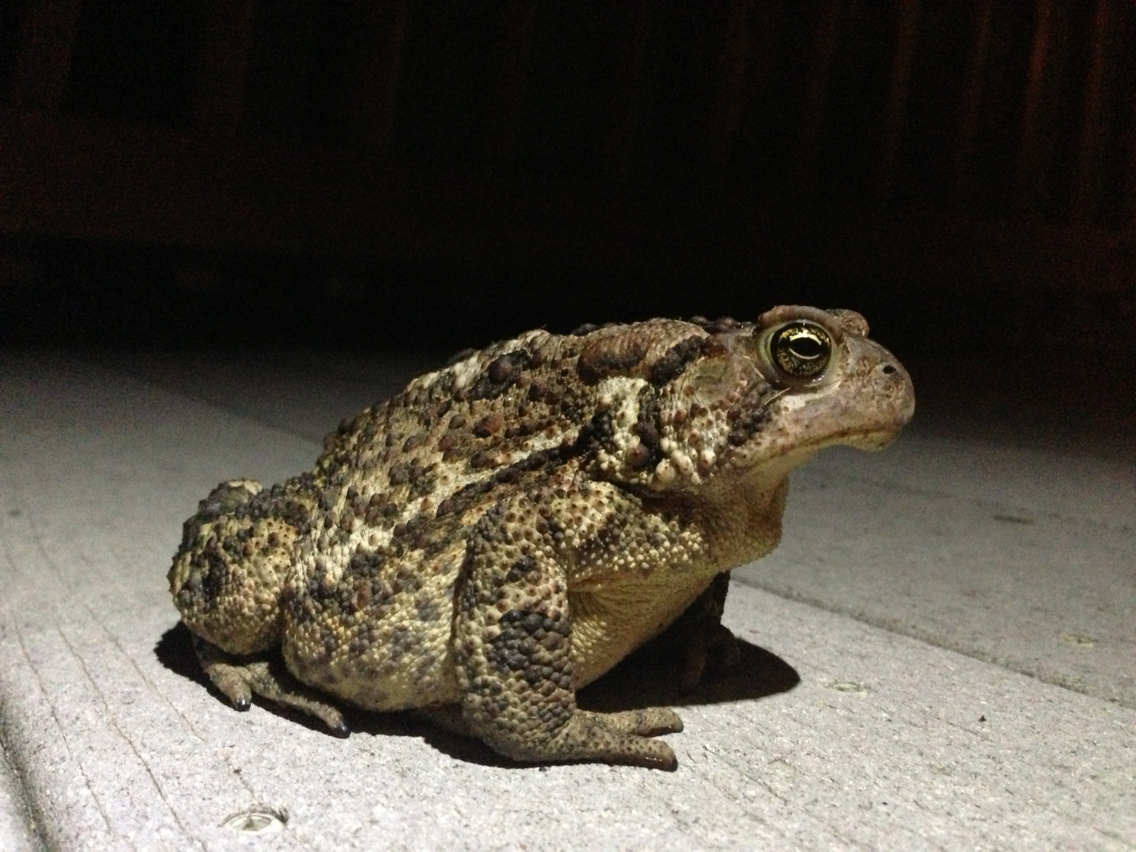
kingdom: Animalia
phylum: Chordata
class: Amphibia
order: Anura
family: Bufonidae
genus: Anaxyrus
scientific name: Anaxyrus americanus
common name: American toad
